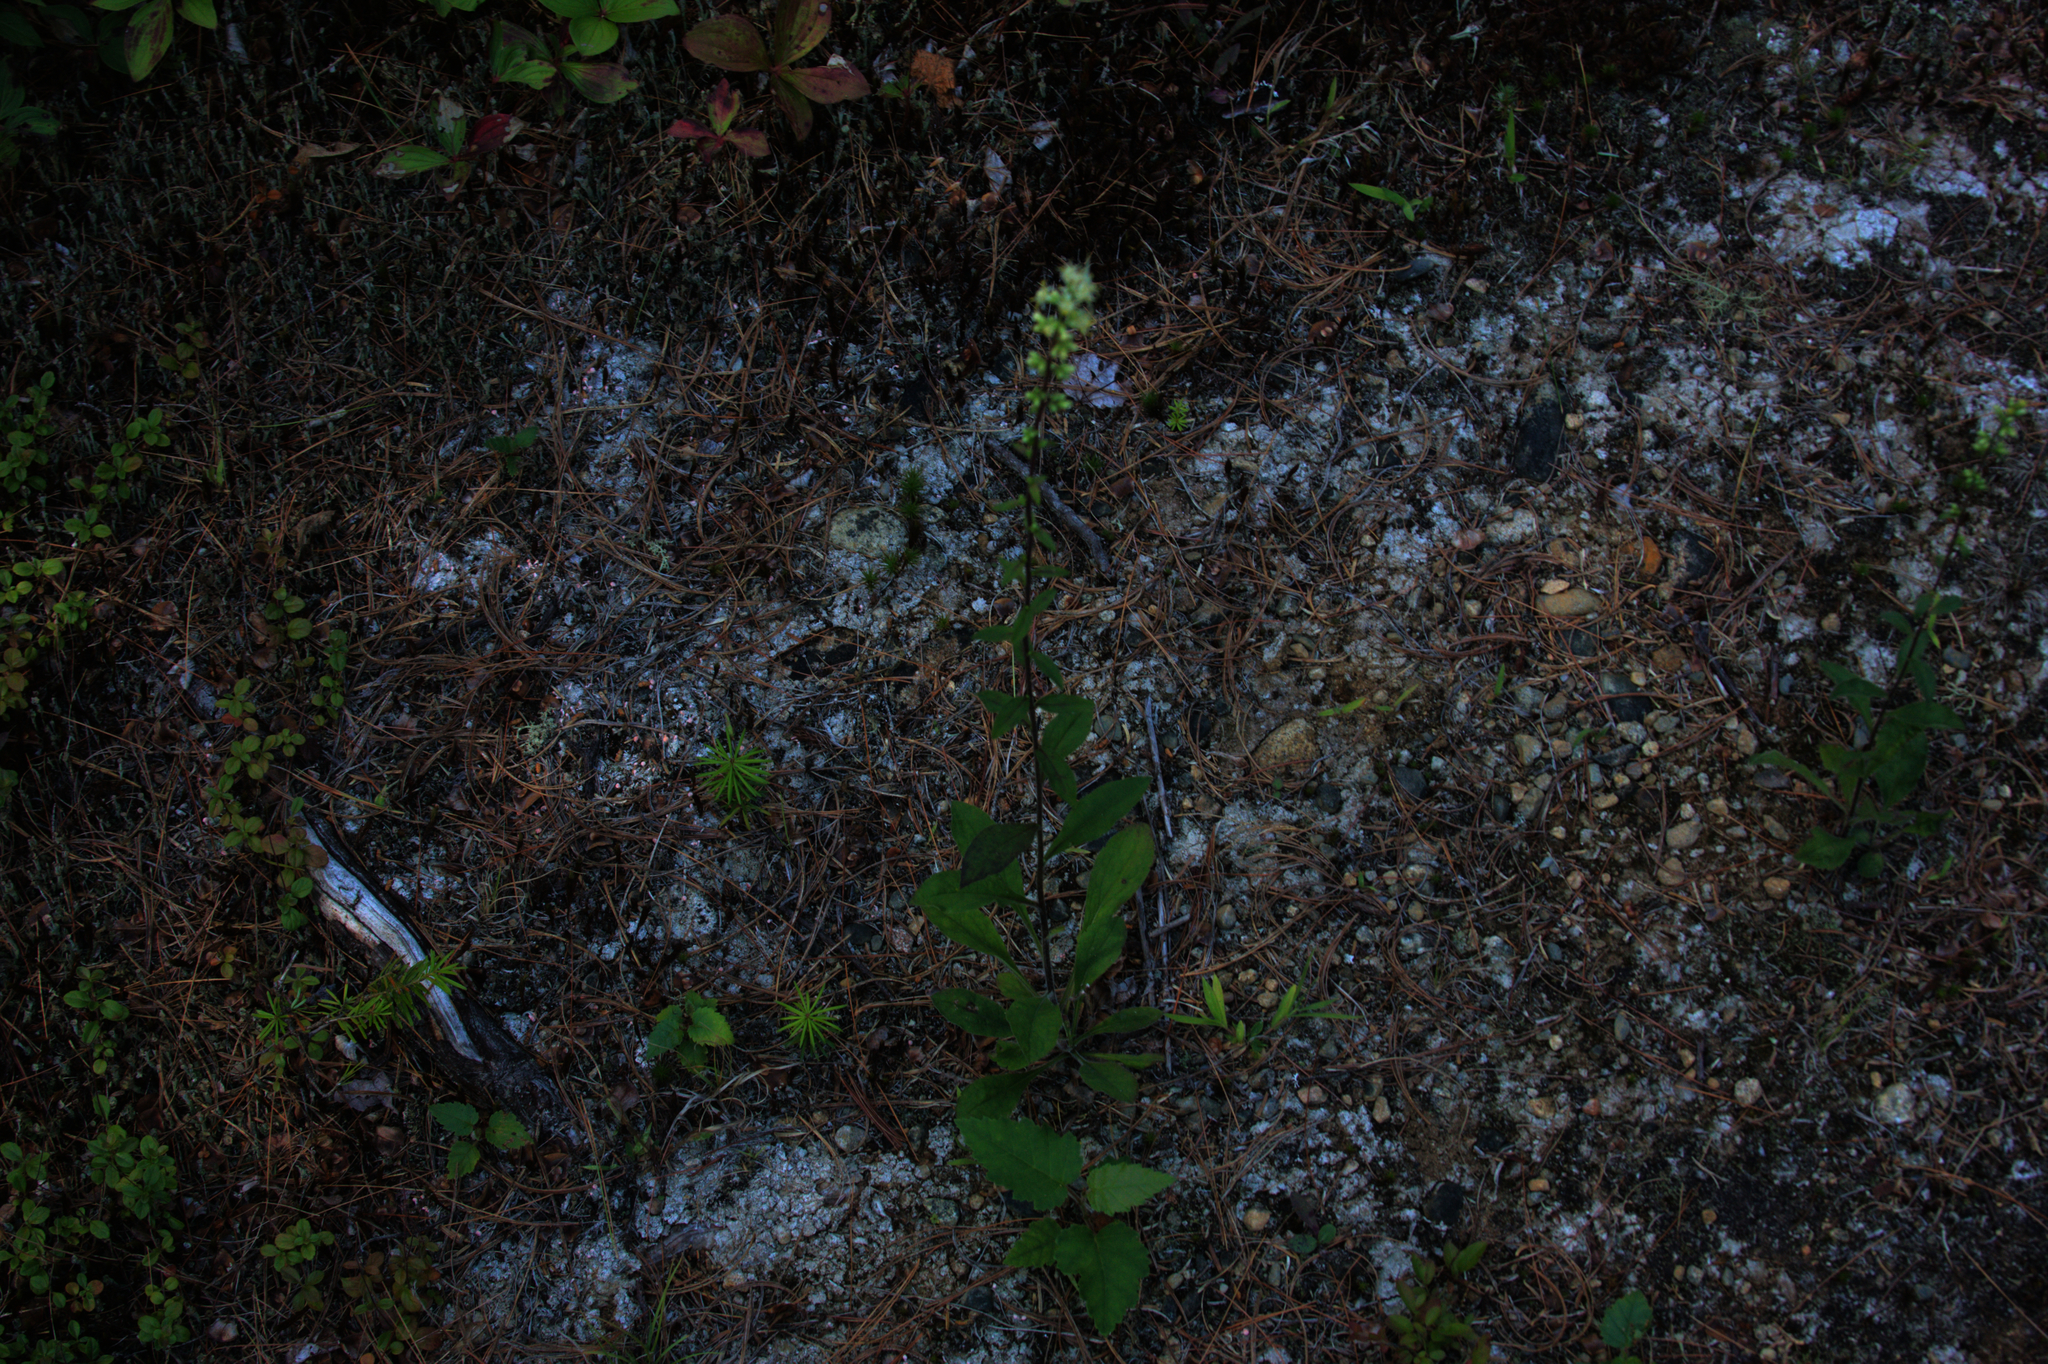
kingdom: Plantae
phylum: Tracheophyta
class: Magnoliopsida
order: Asterales
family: Asteraceae
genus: Solidago
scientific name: Solidago bicolor
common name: Silverrod
